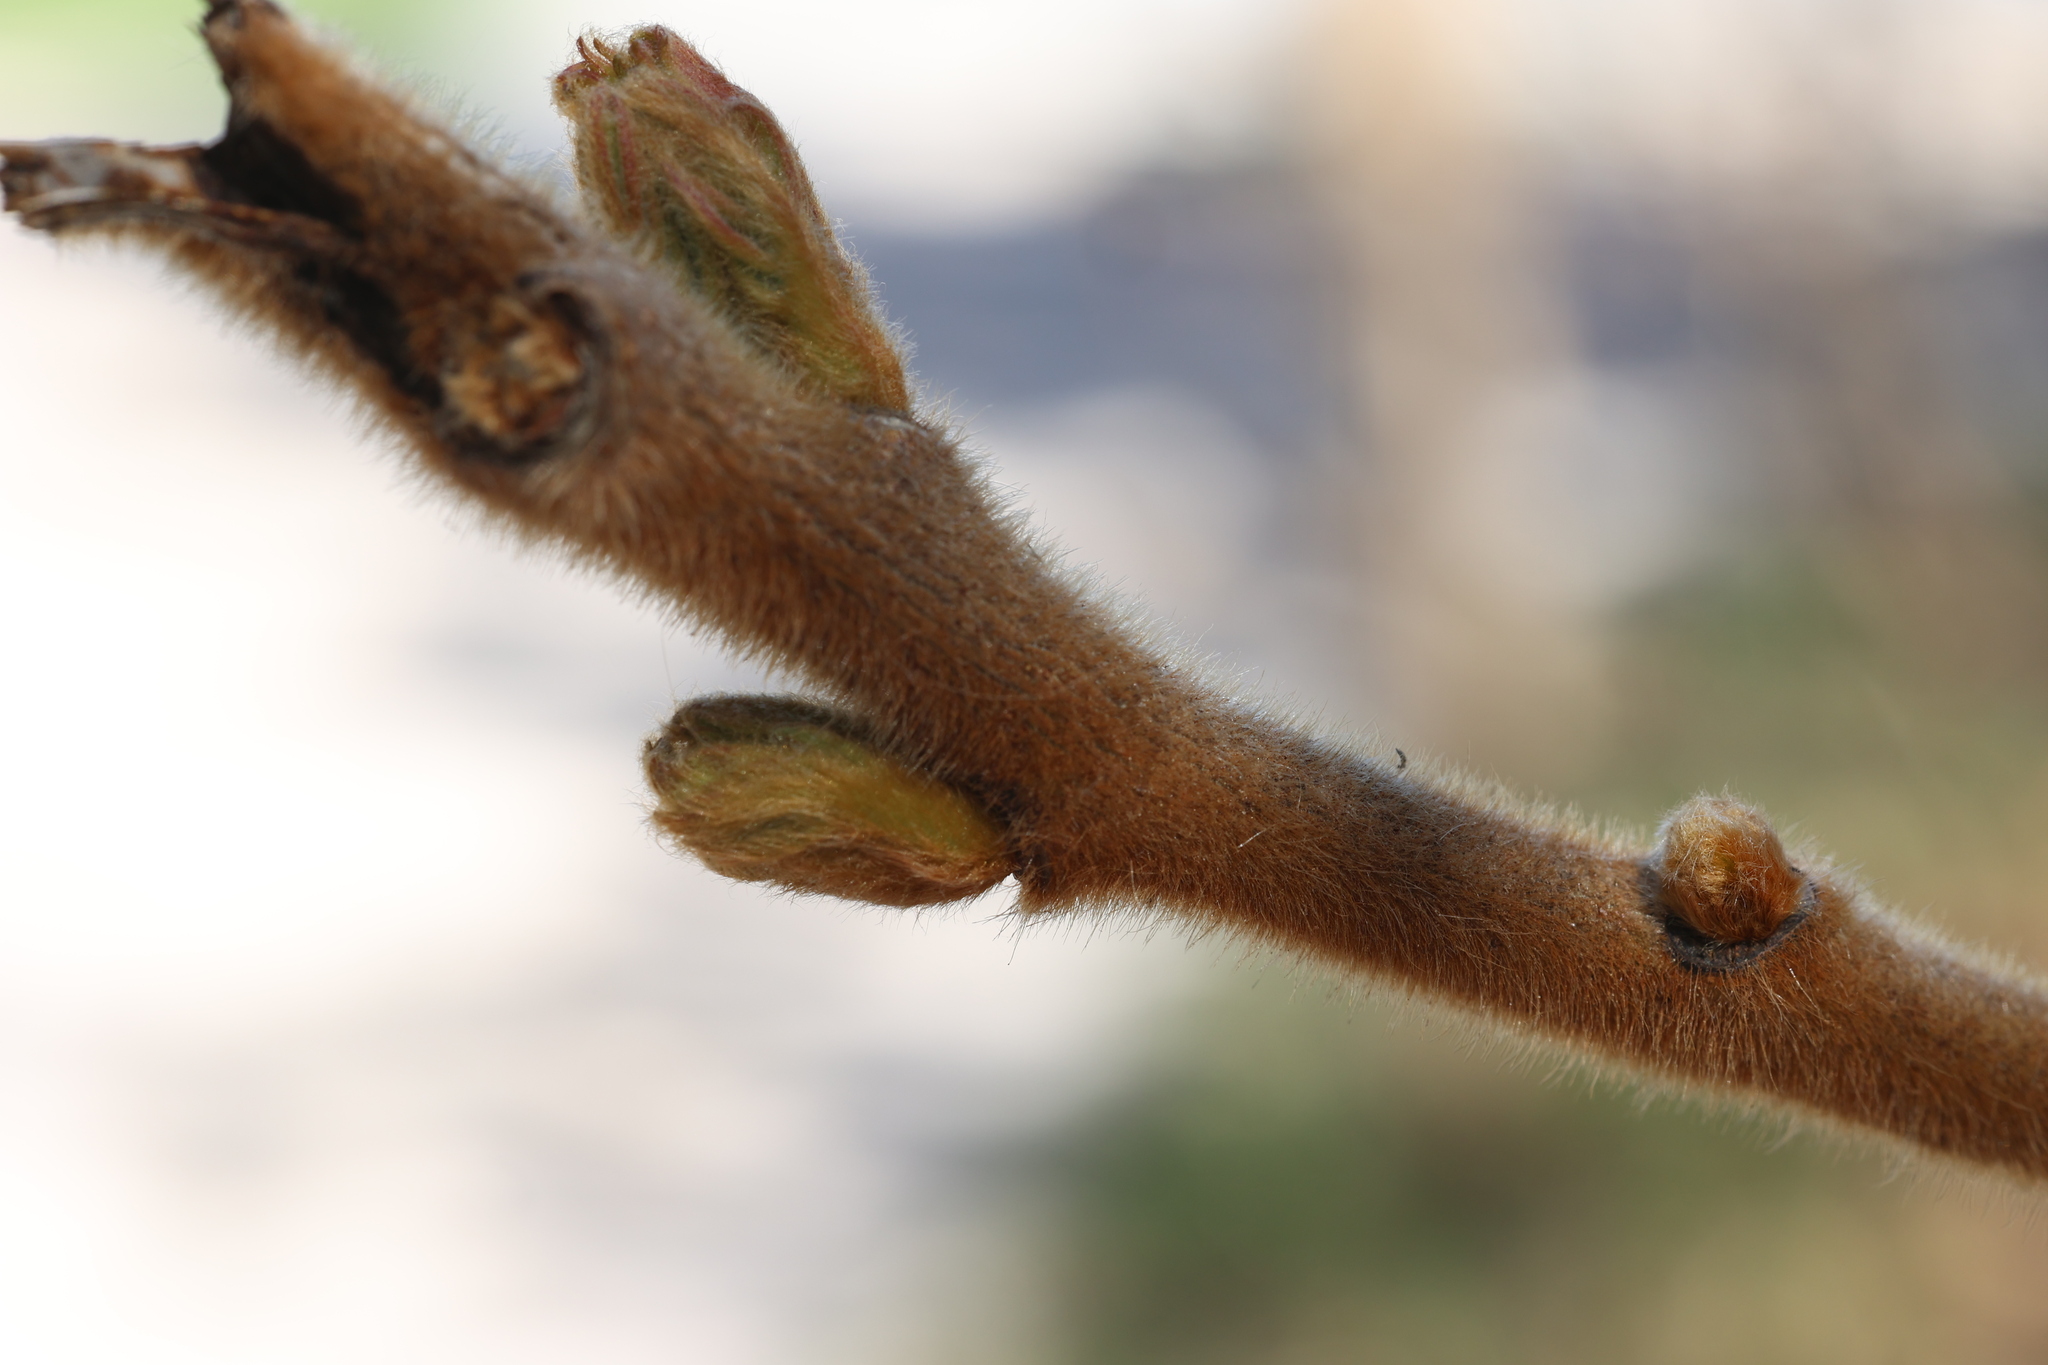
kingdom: Plantae
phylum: Tracheophyta
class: Magnoliopsida
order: Sapindales
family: Anacardiaceae
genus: Rhus
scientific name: Rhus typhina
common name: Staghorn sumac
